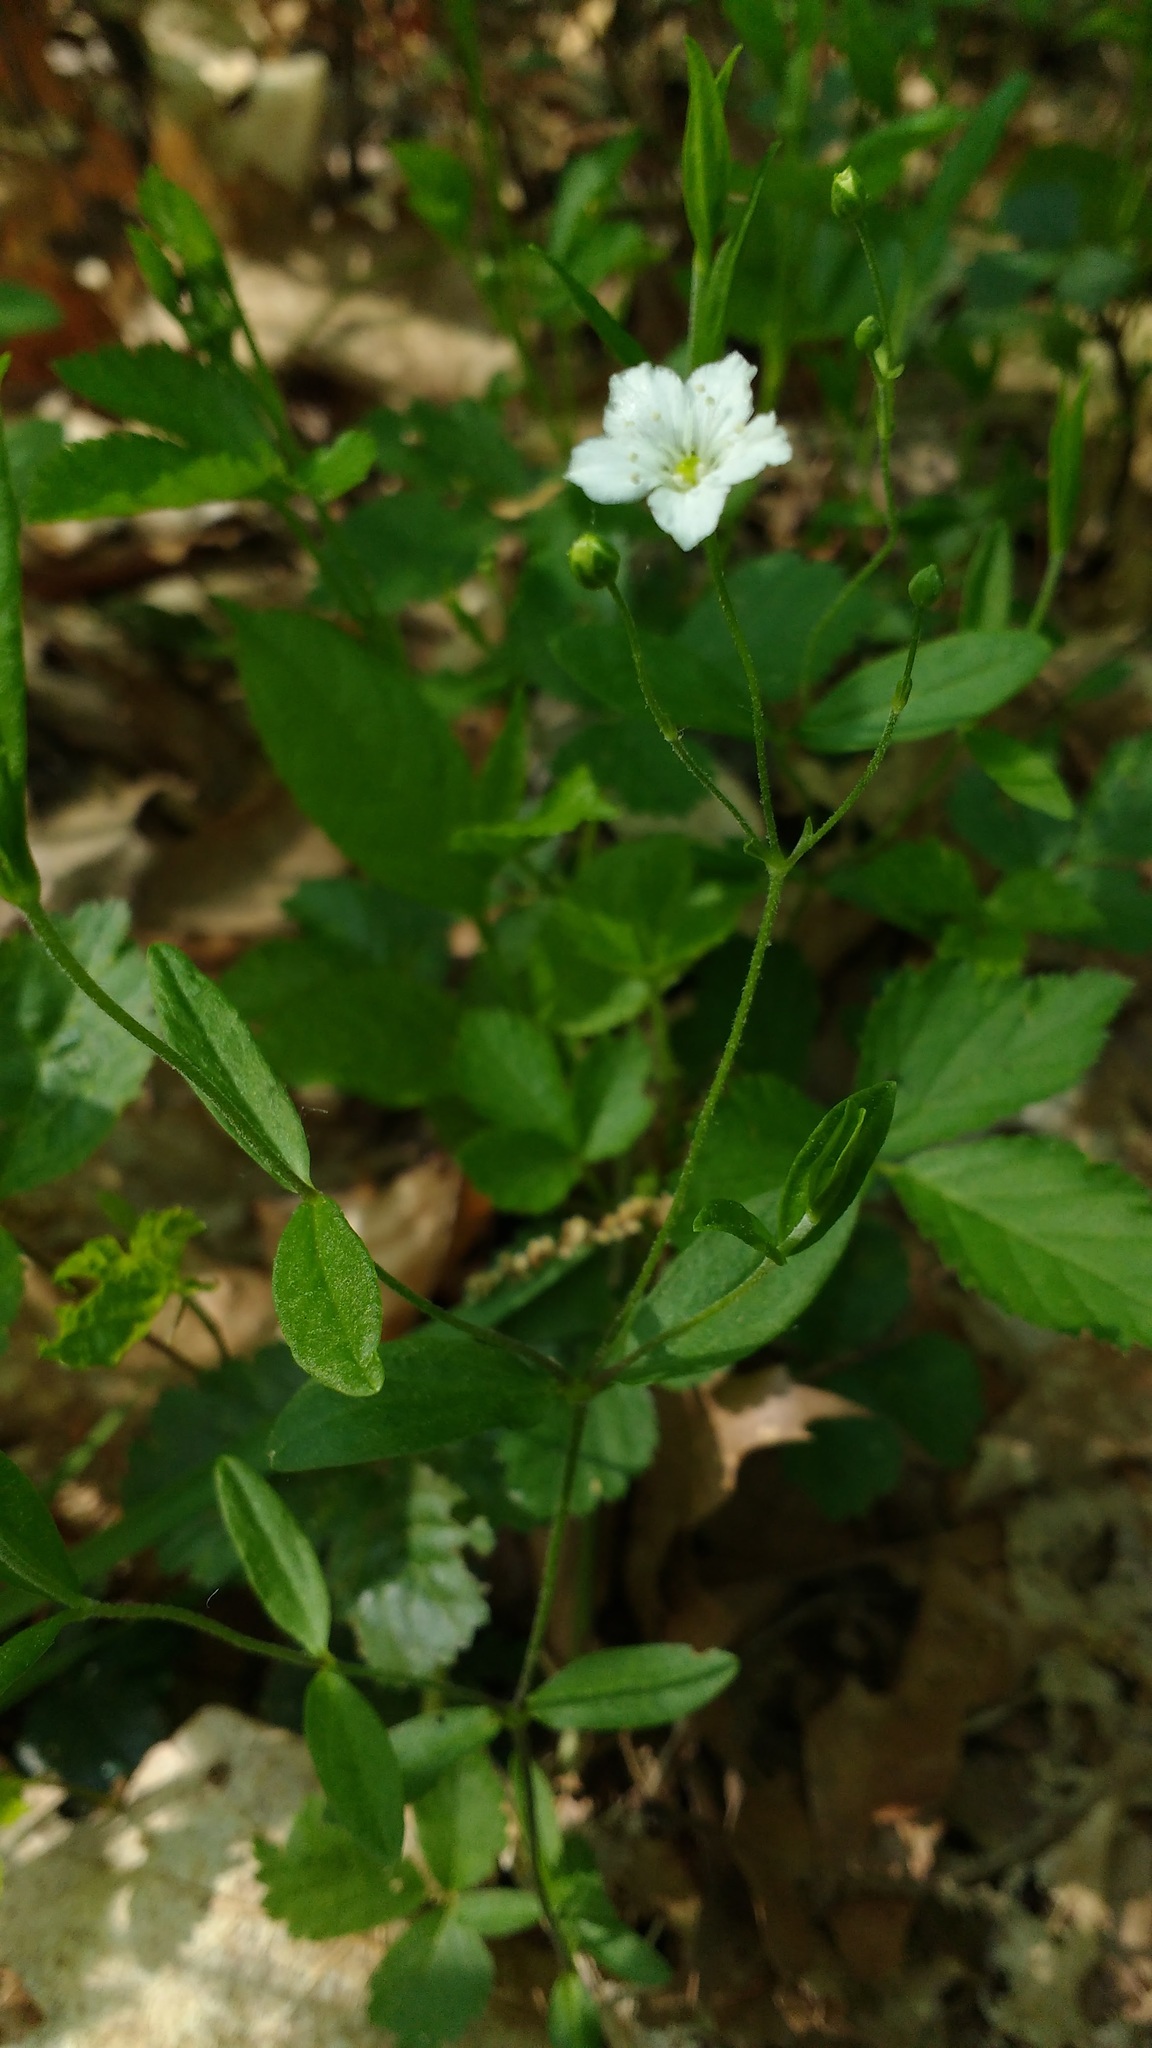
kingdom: Plantae
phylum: Tracheophyta
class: Magnoliopsida
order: Caryophyllales
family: Caryophyllaceae
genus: Moehringia
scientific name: Moehringia lateriflora
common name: Blunt-leaved sandwort
